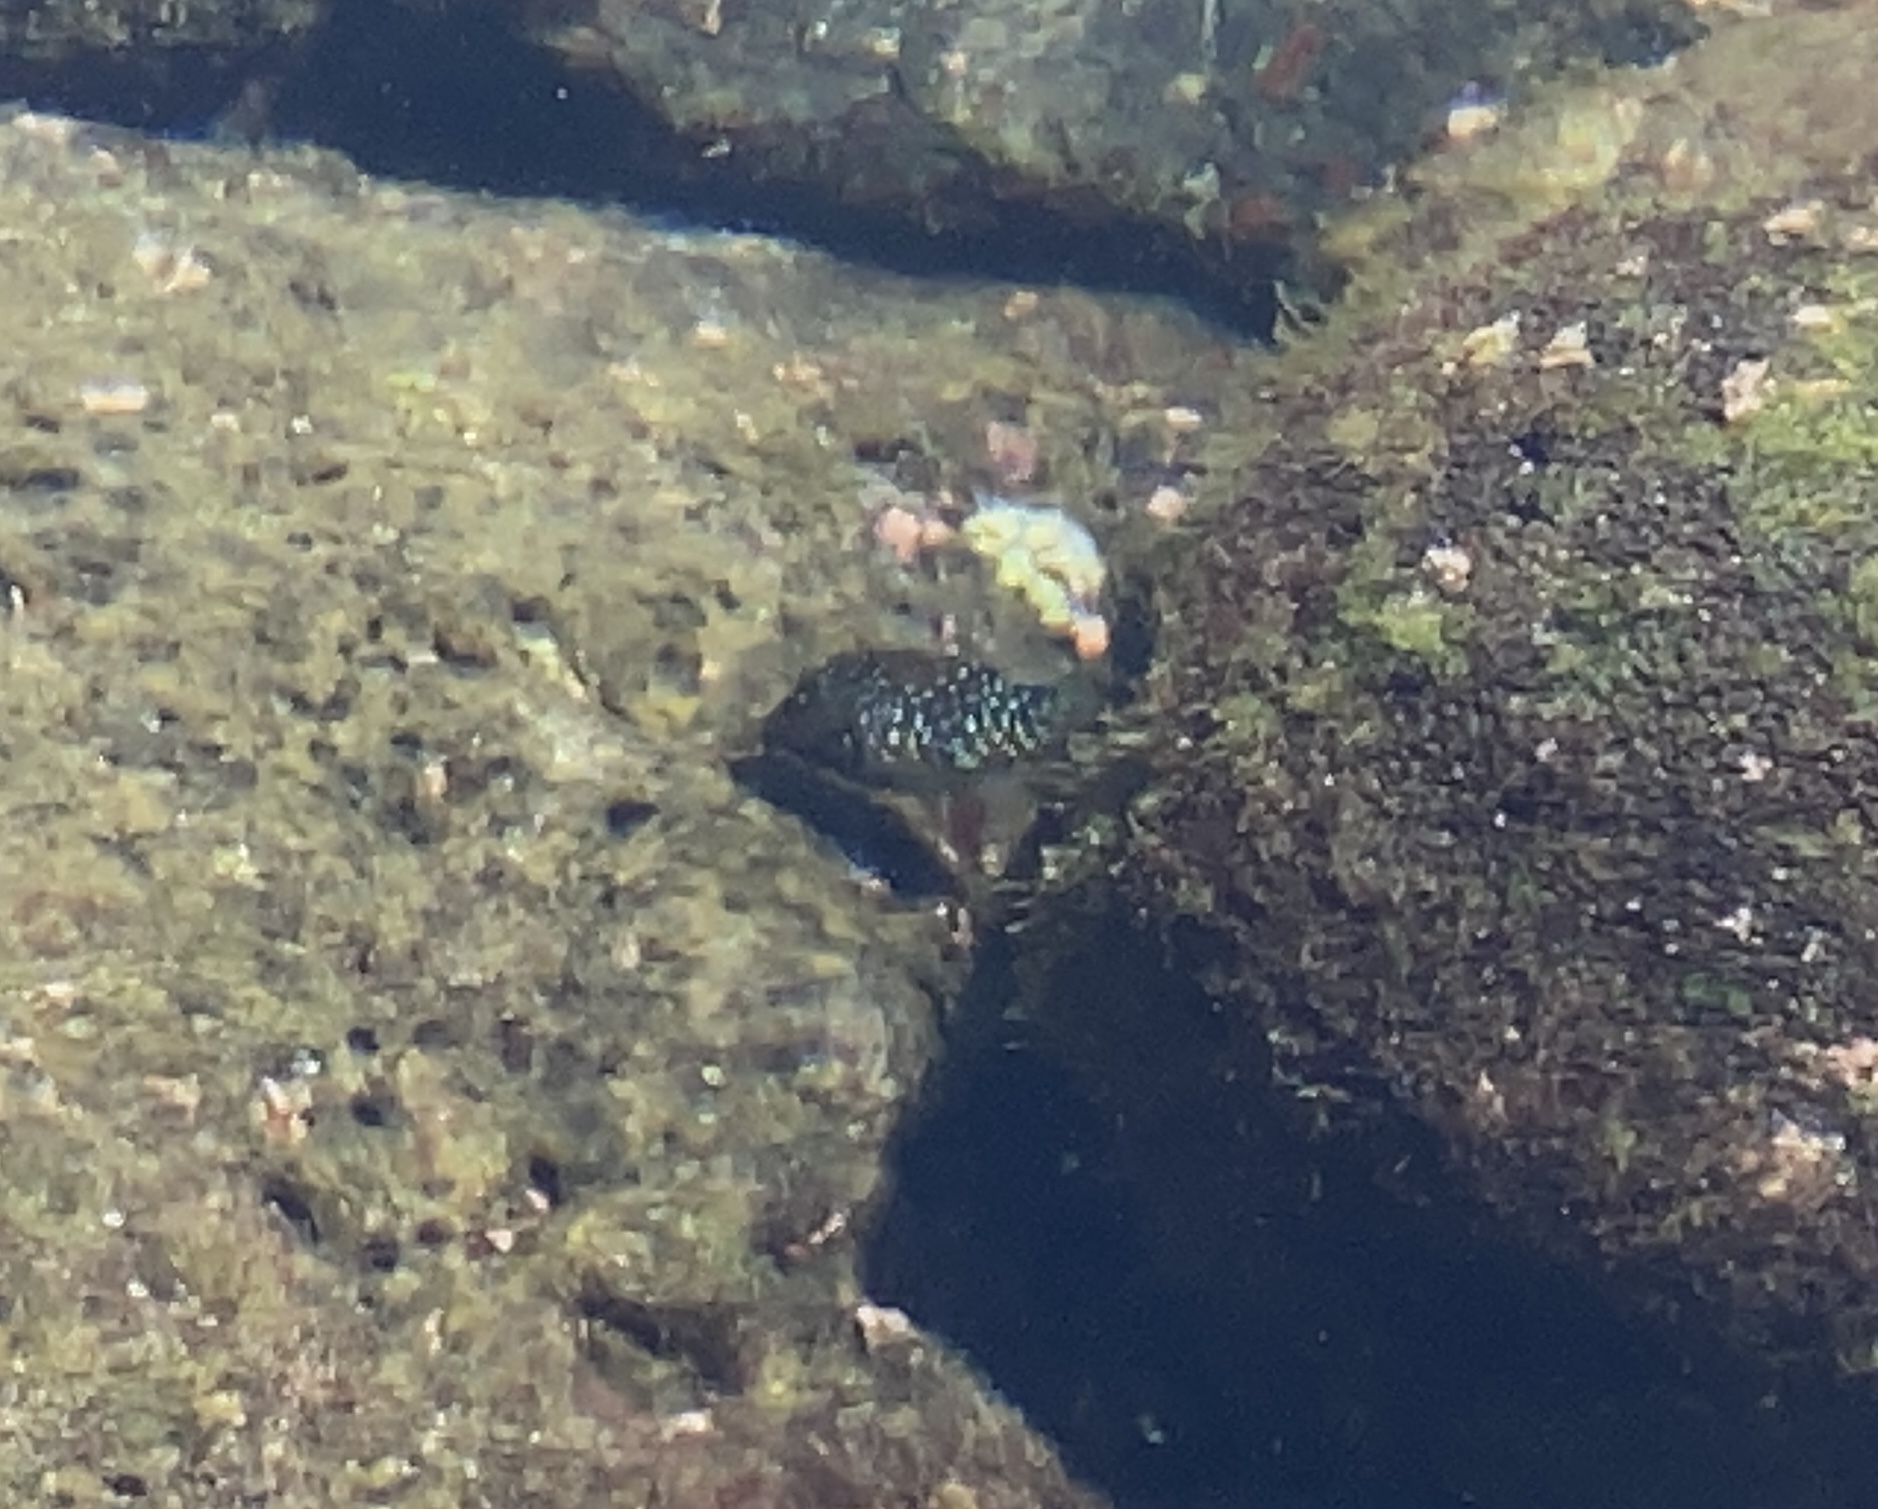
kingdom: Animalia
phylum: Chordata
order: Tetraodontiformes
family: Ostraciidae
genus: Ostracion
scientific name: Ostracion meleagris
